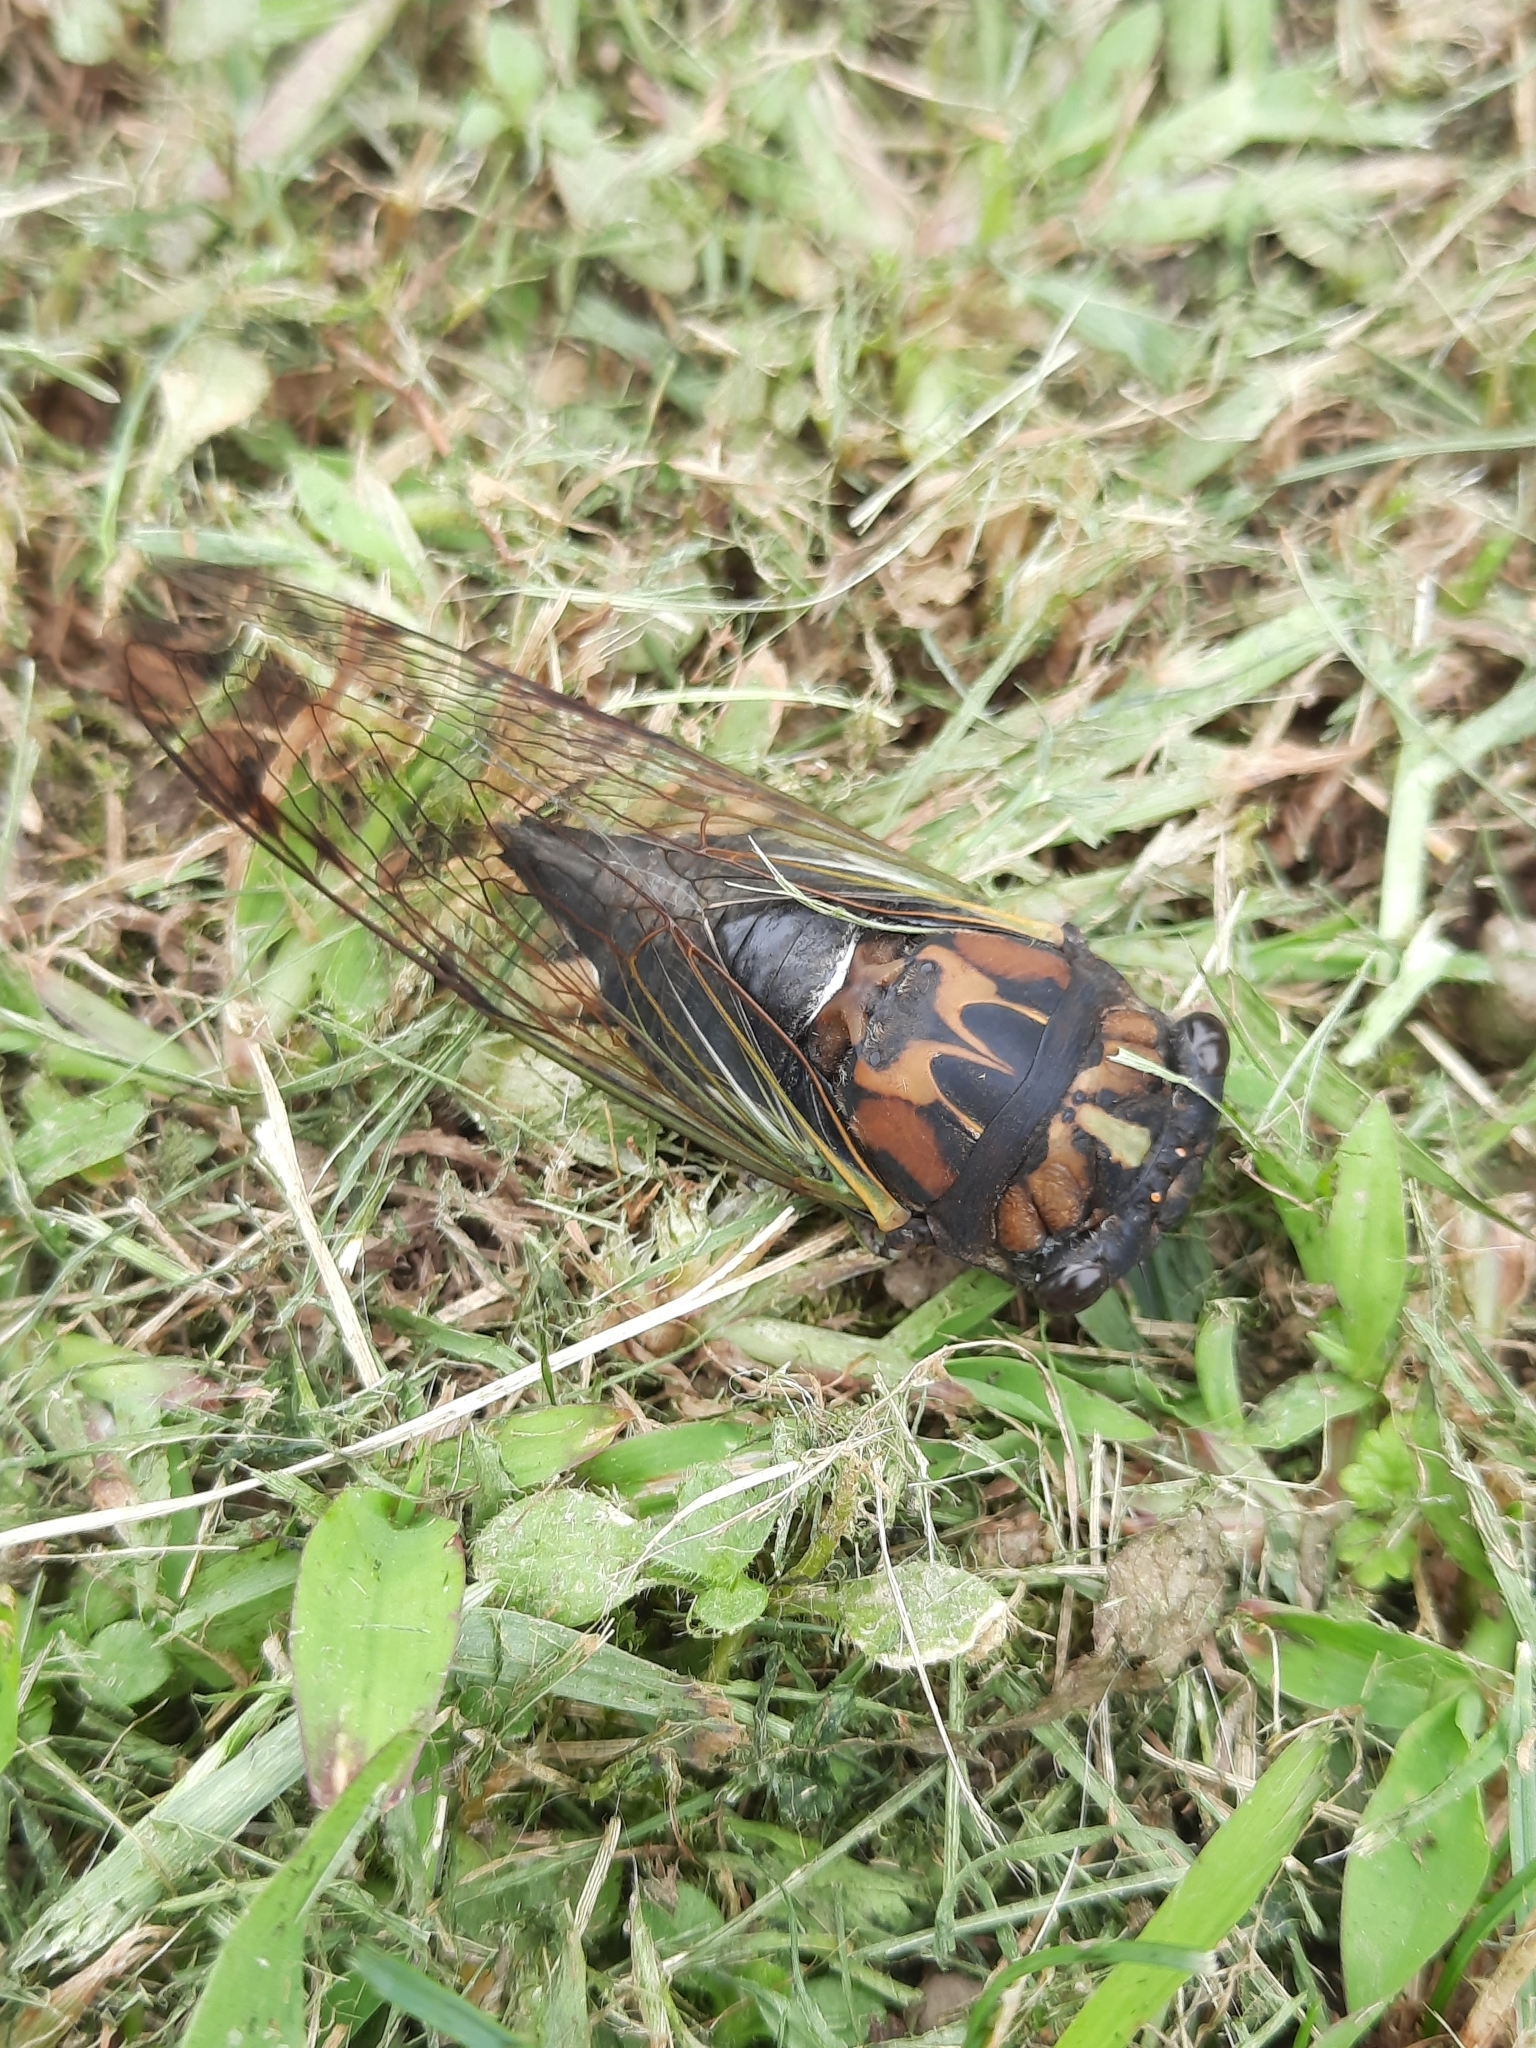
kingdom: Animalia
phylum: Arthropoda
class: Insecta
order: Hemiptera
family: Cicadidae
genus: Neotibicen
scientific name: Neotibicen lyricen
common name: Lyric cicada
